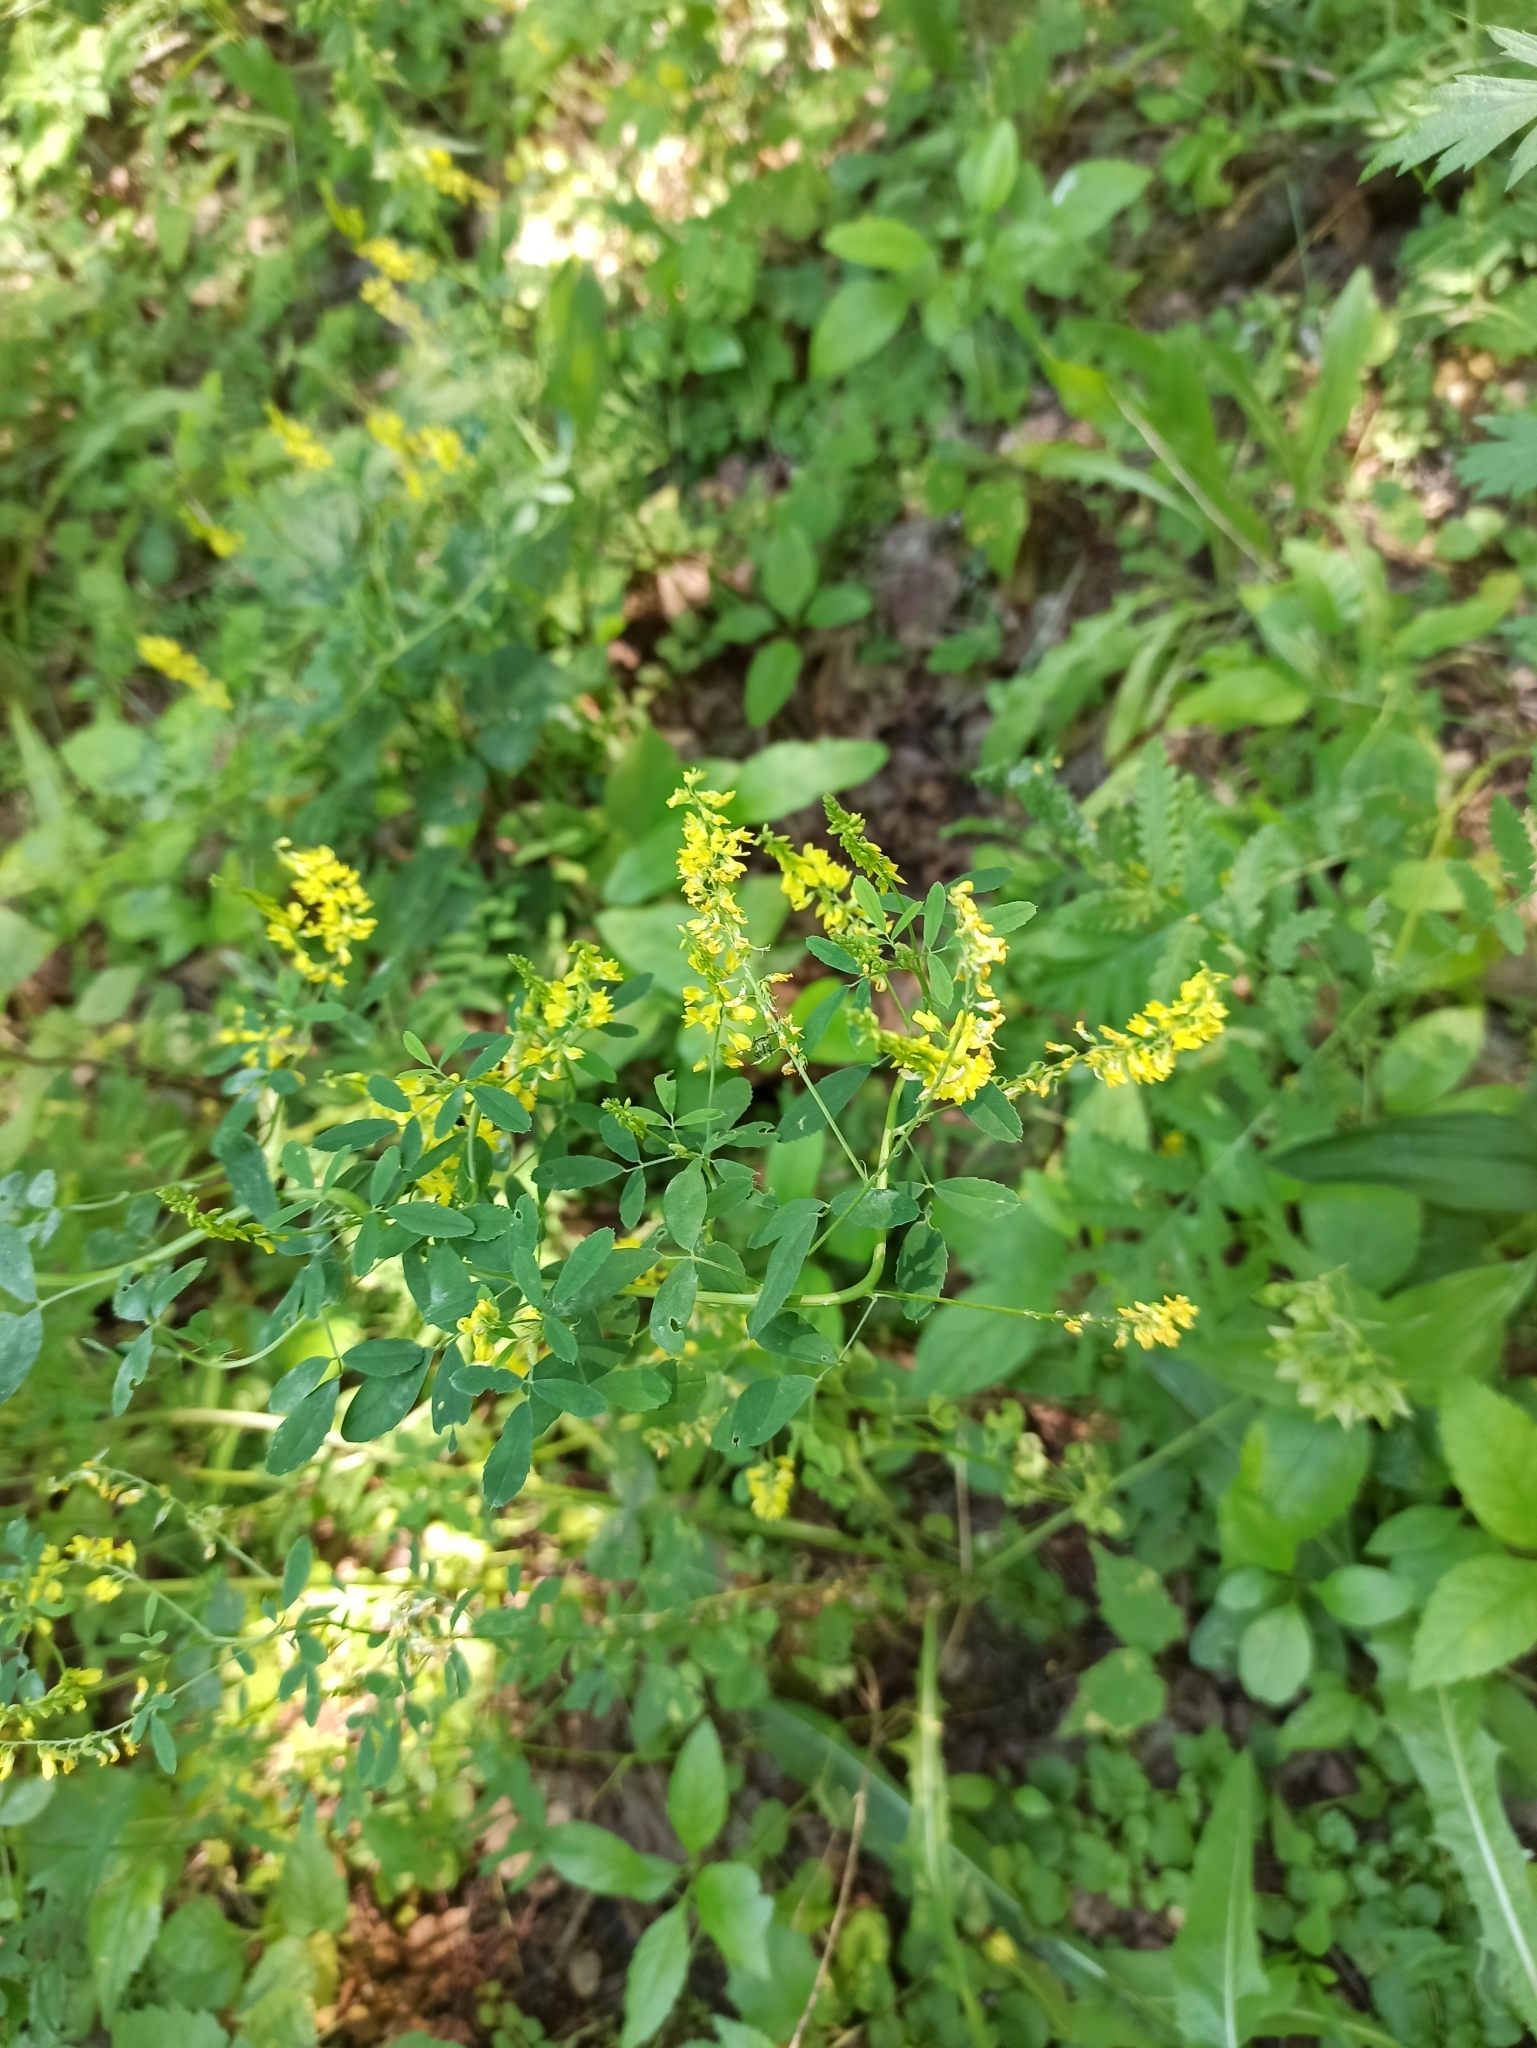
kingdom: Plantae
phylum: Tracheophyta
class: Magnoliopsida
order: Fabales
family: Fabaceae
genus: Melilotus
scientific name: Melilotus officinalis
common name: Sweetclover
